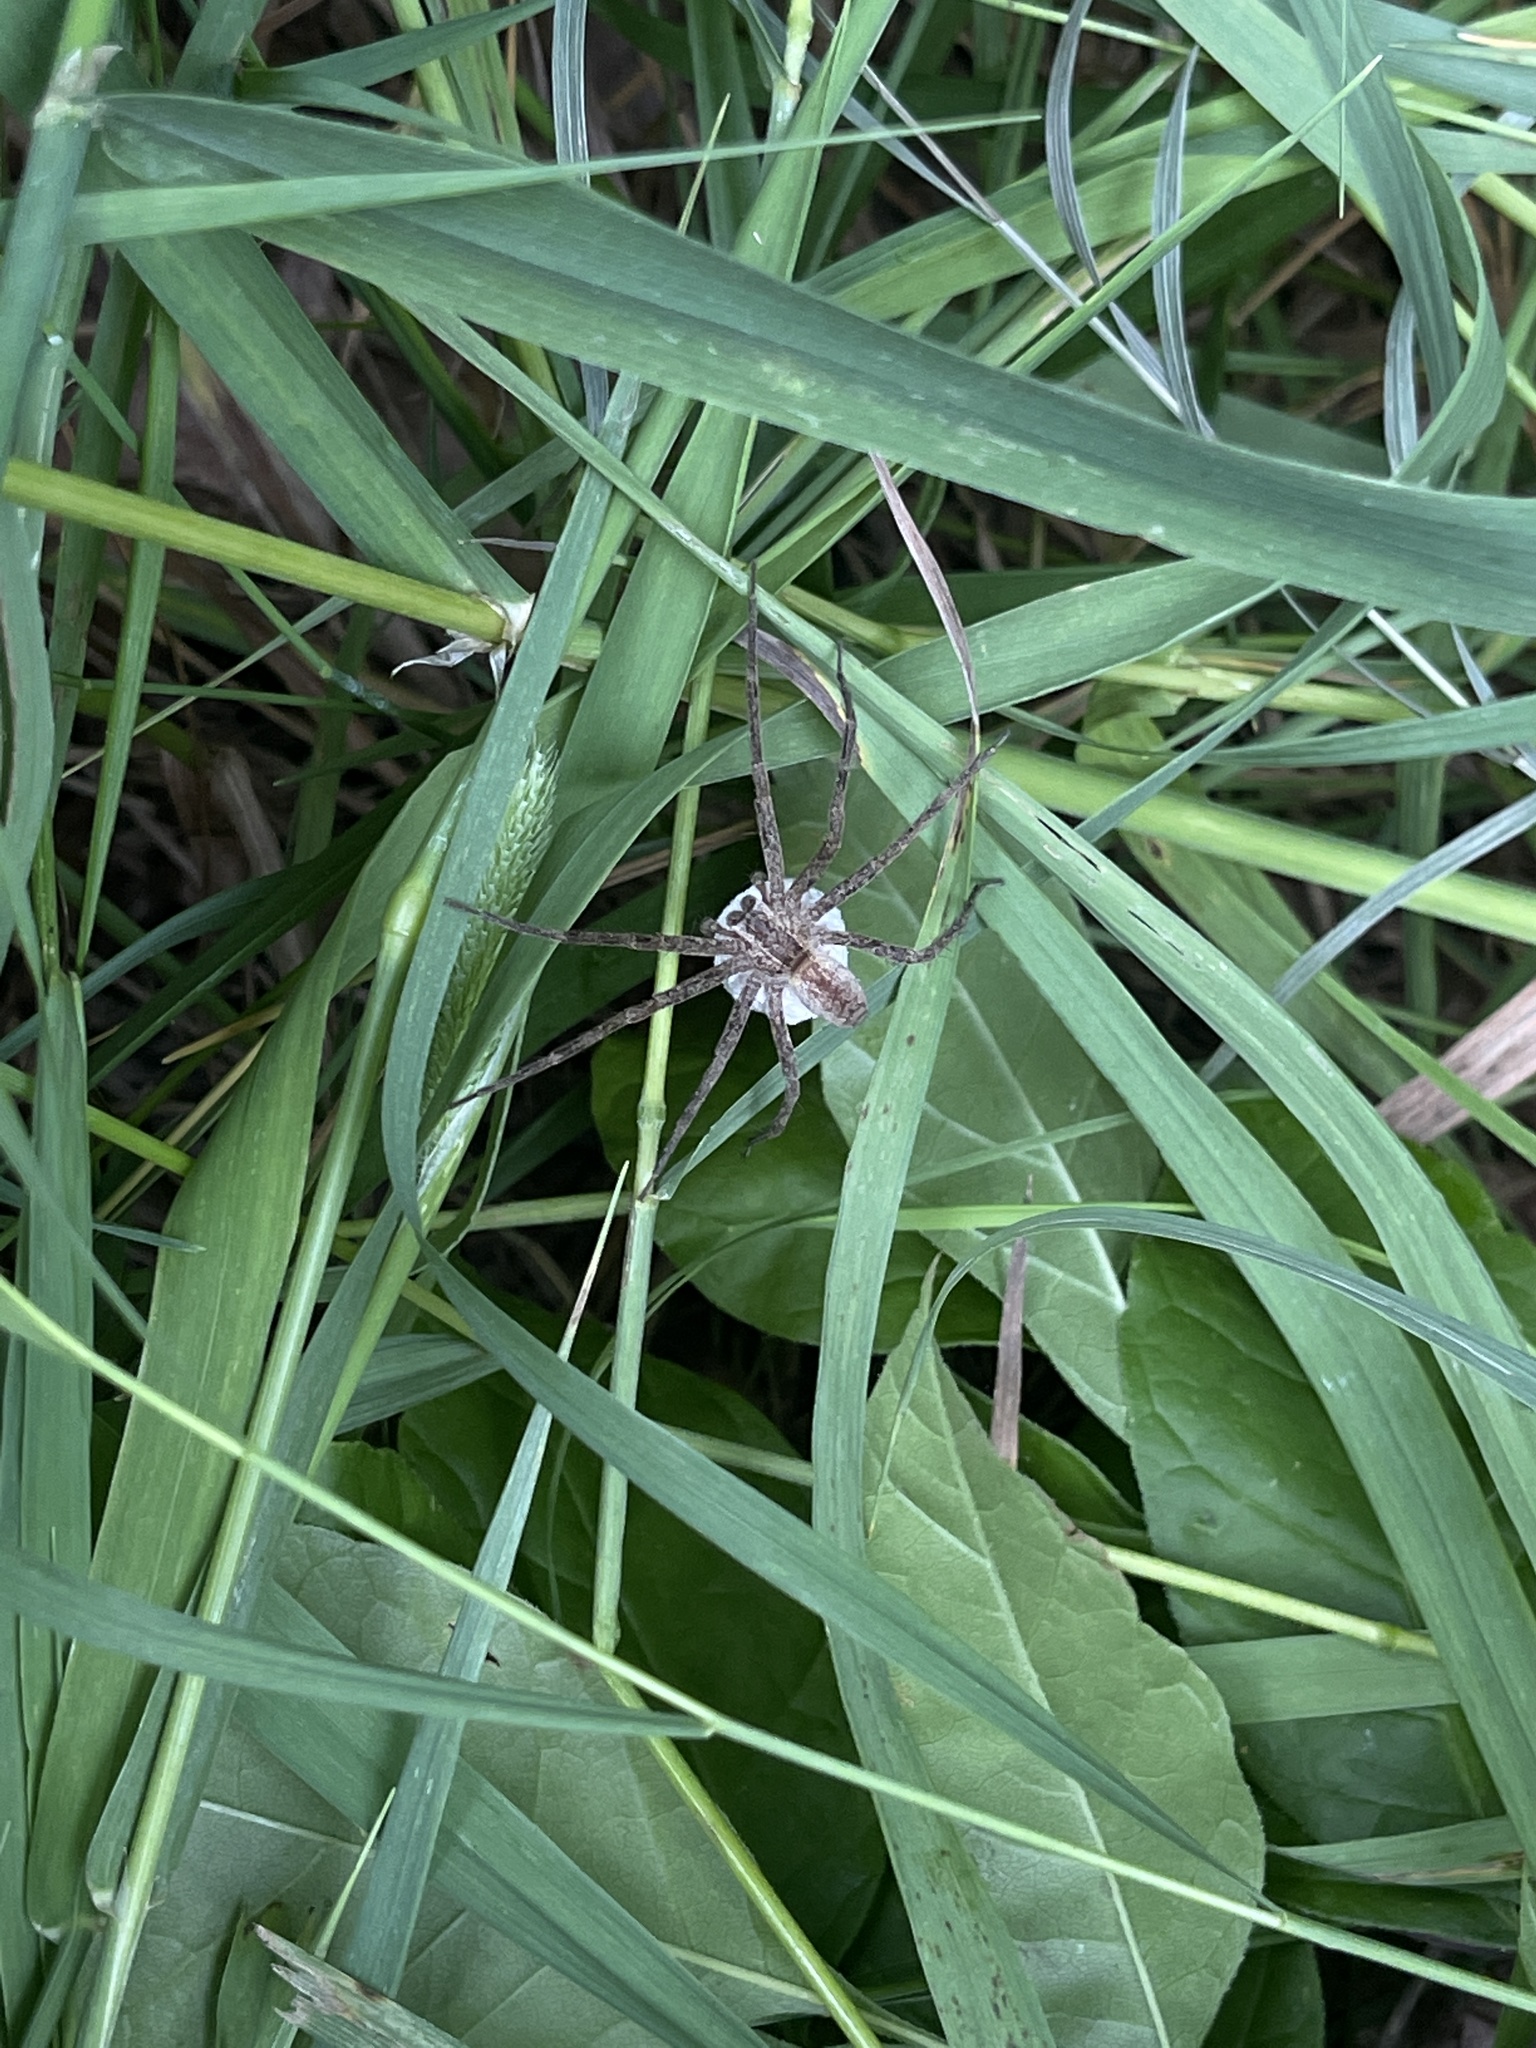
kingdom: Animalia
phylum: Arthropoda
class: Arachnida
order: Araneae
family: Pisauridae
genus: Pisaurina
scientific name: Pisaurina mira
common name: American nursery web spider
